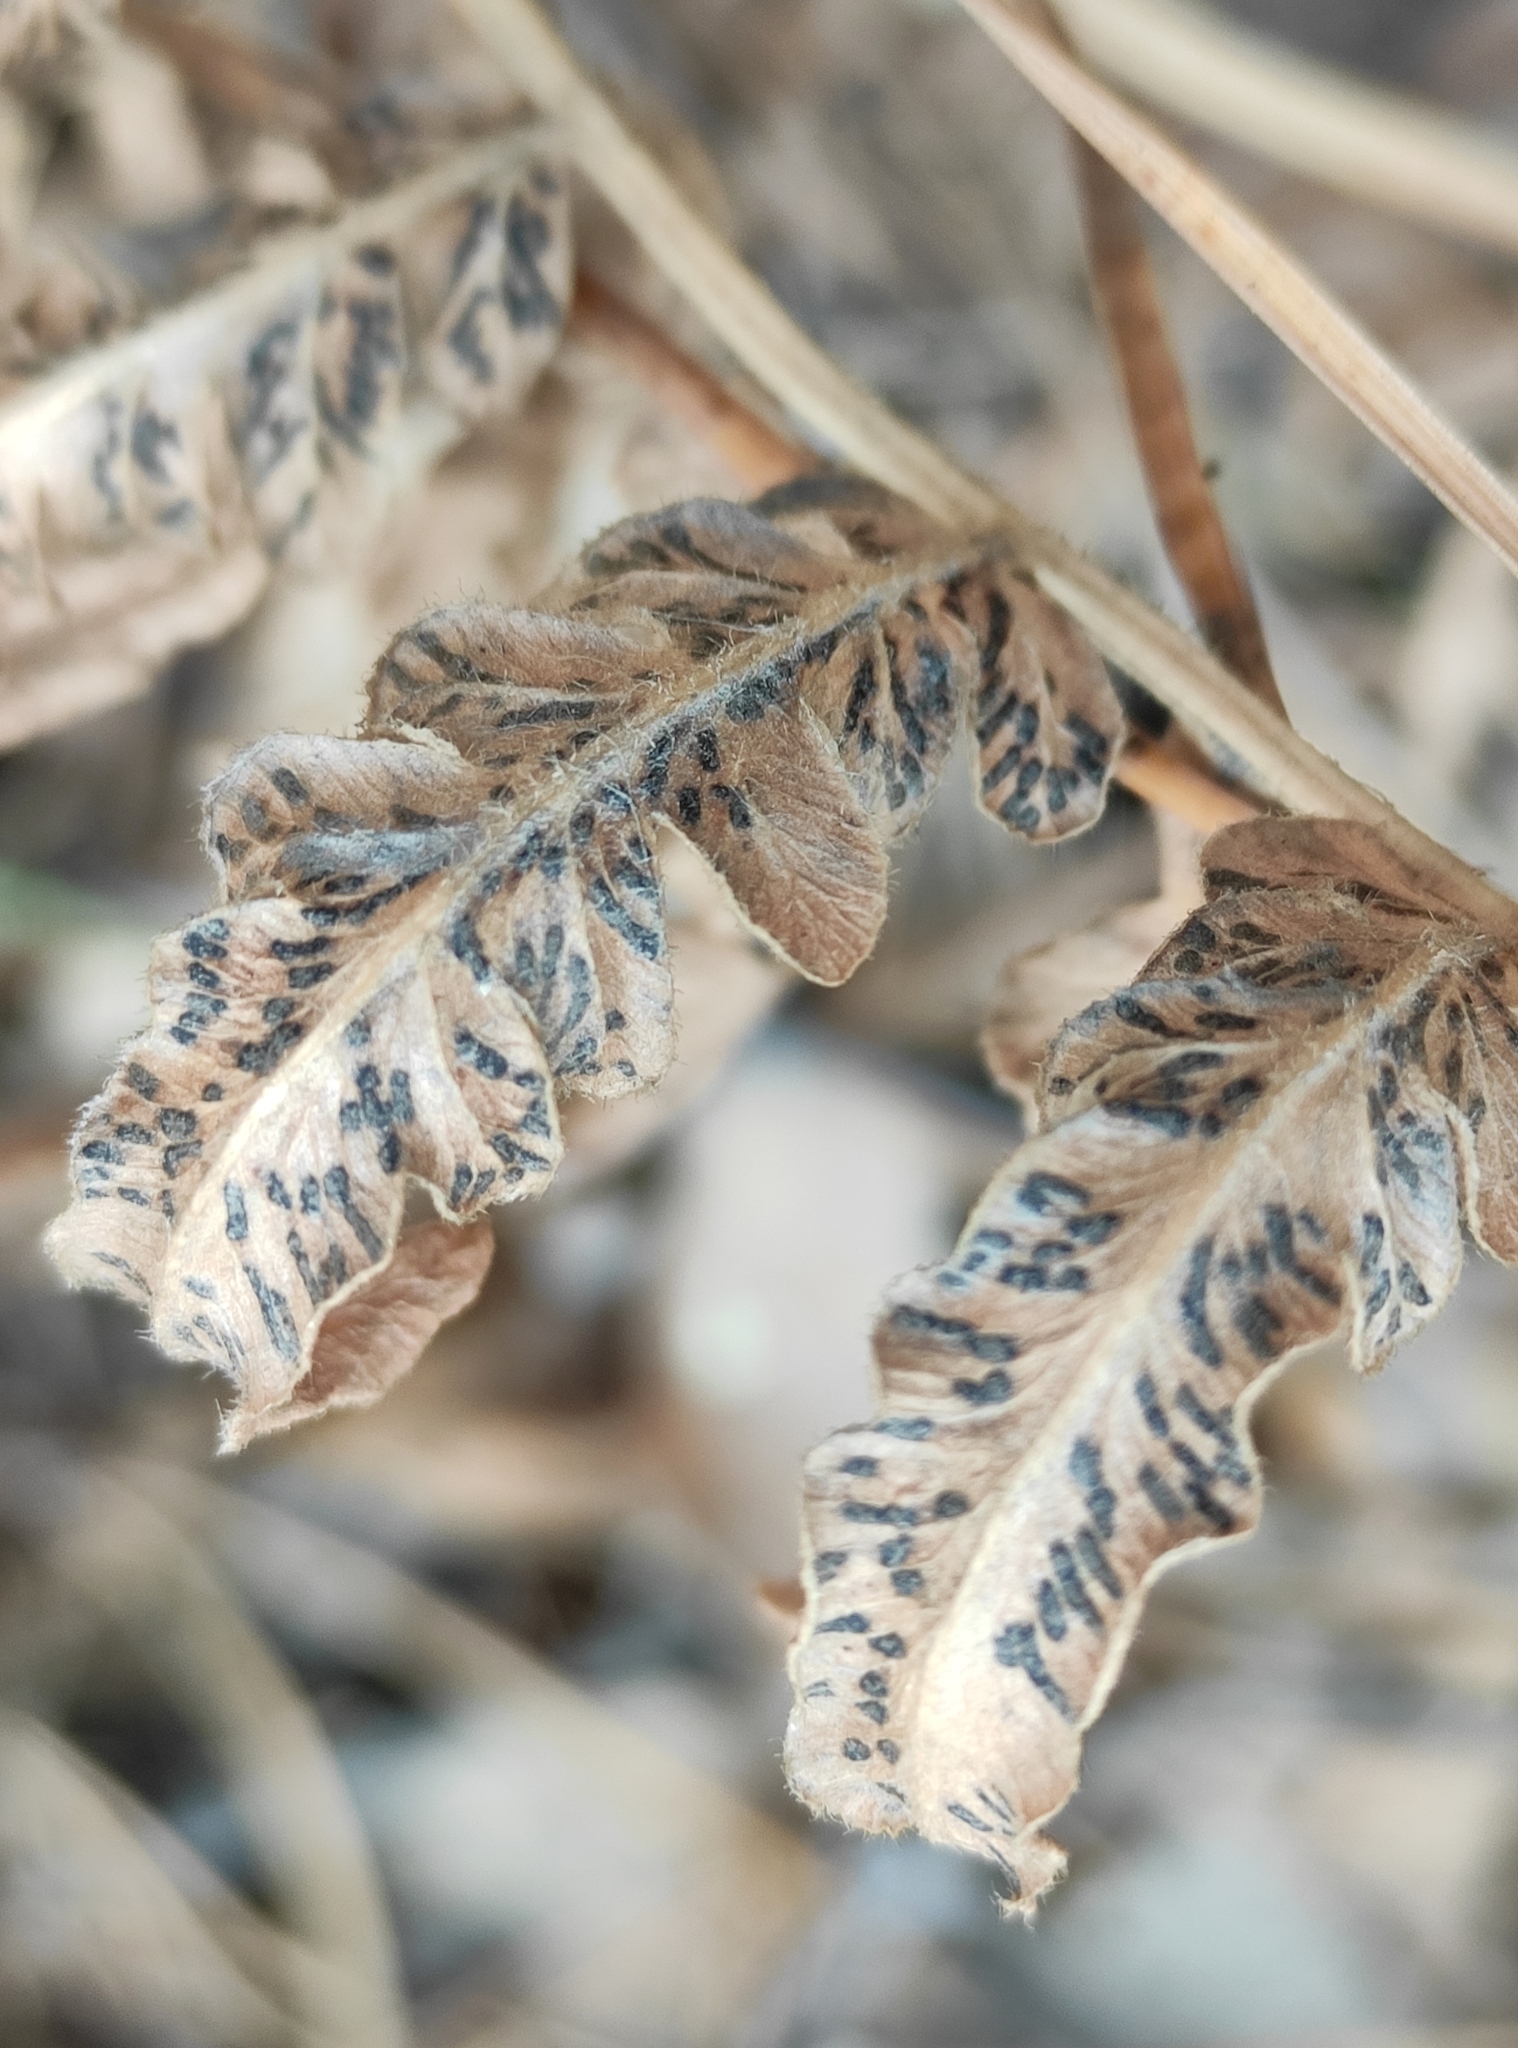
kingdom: Plantae
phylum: Tracheophyta
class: Polypodiopsida
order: Polypodiales
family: Dennstaedtiaceae
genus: Pteridium
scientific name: Pteridium aquilinum
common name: Bracken
